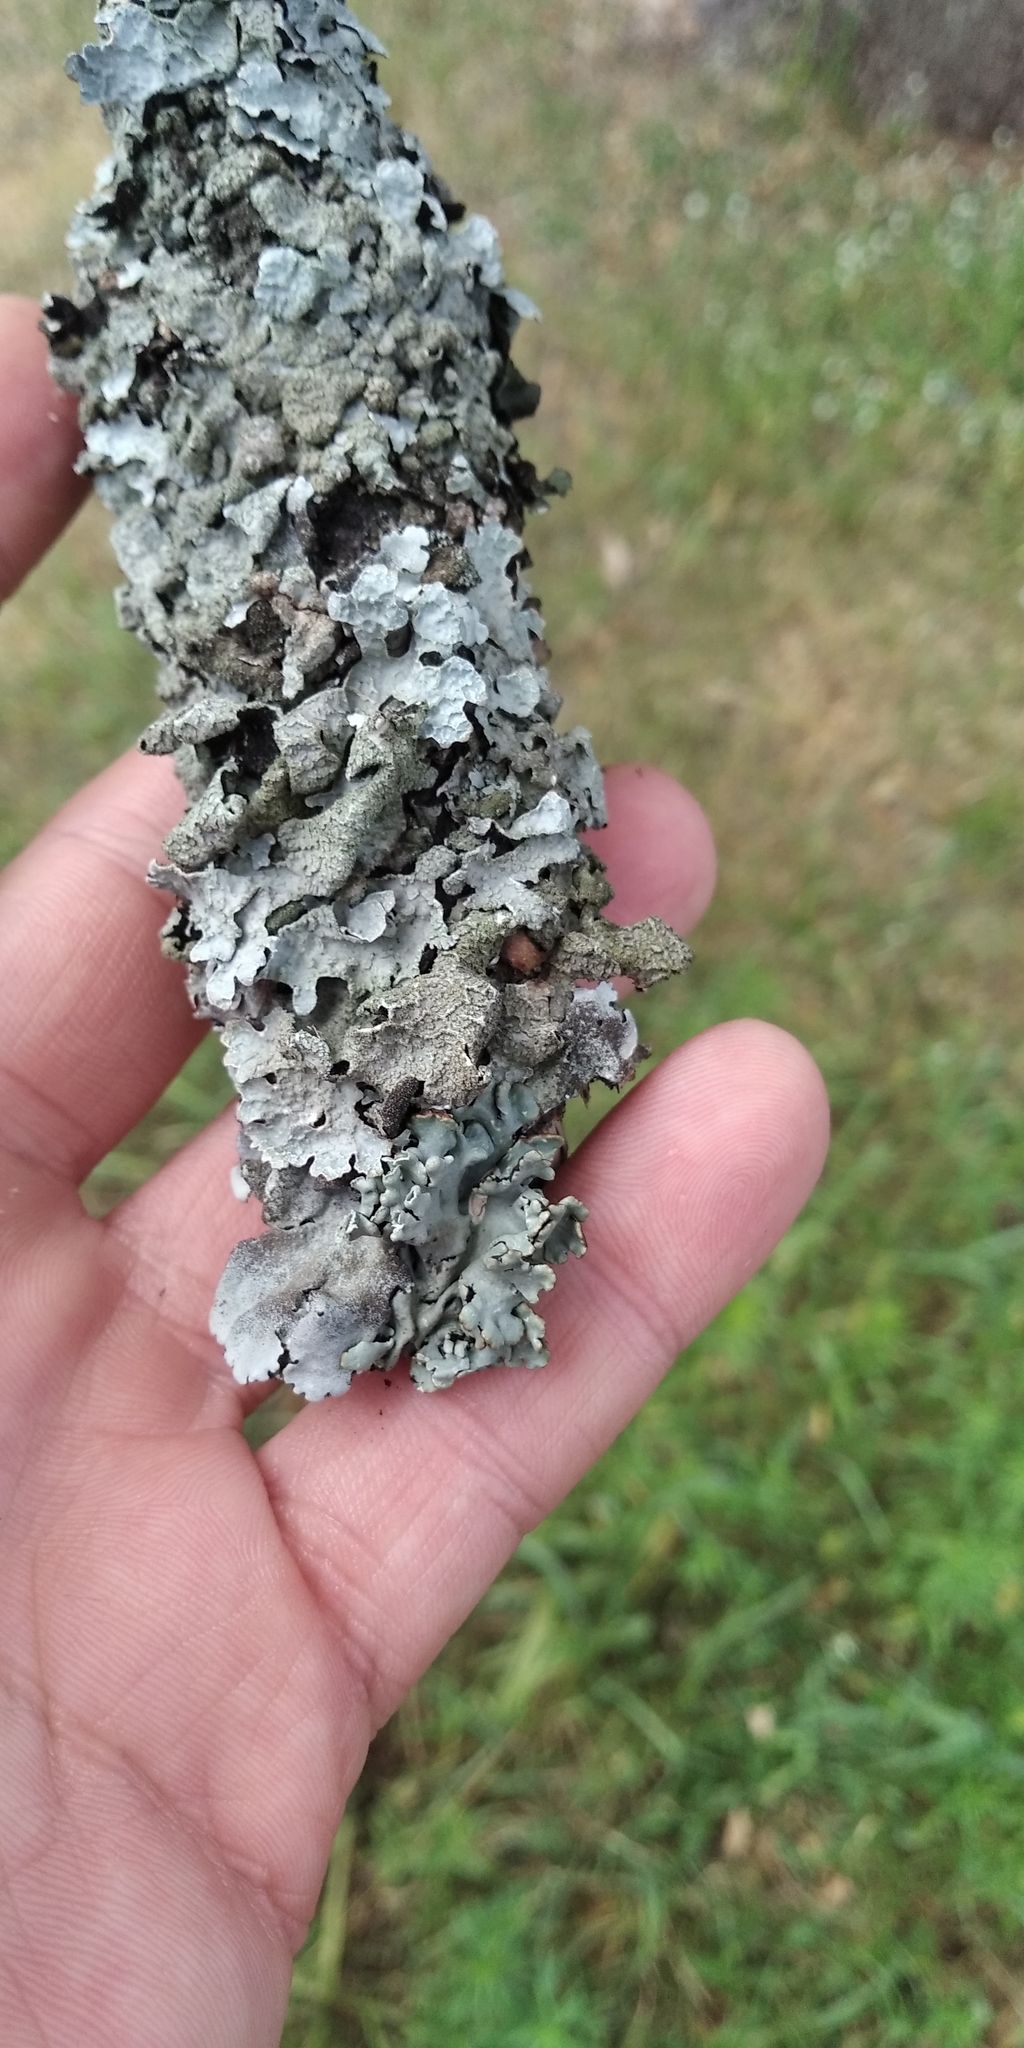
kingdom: Fungi
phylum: Ascomycota
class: Lecanoromycetes
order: Lecanorales
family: Parmeliaceae
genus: Parmelia
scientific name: Parmelia sulcata
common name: Netted shield lichen
